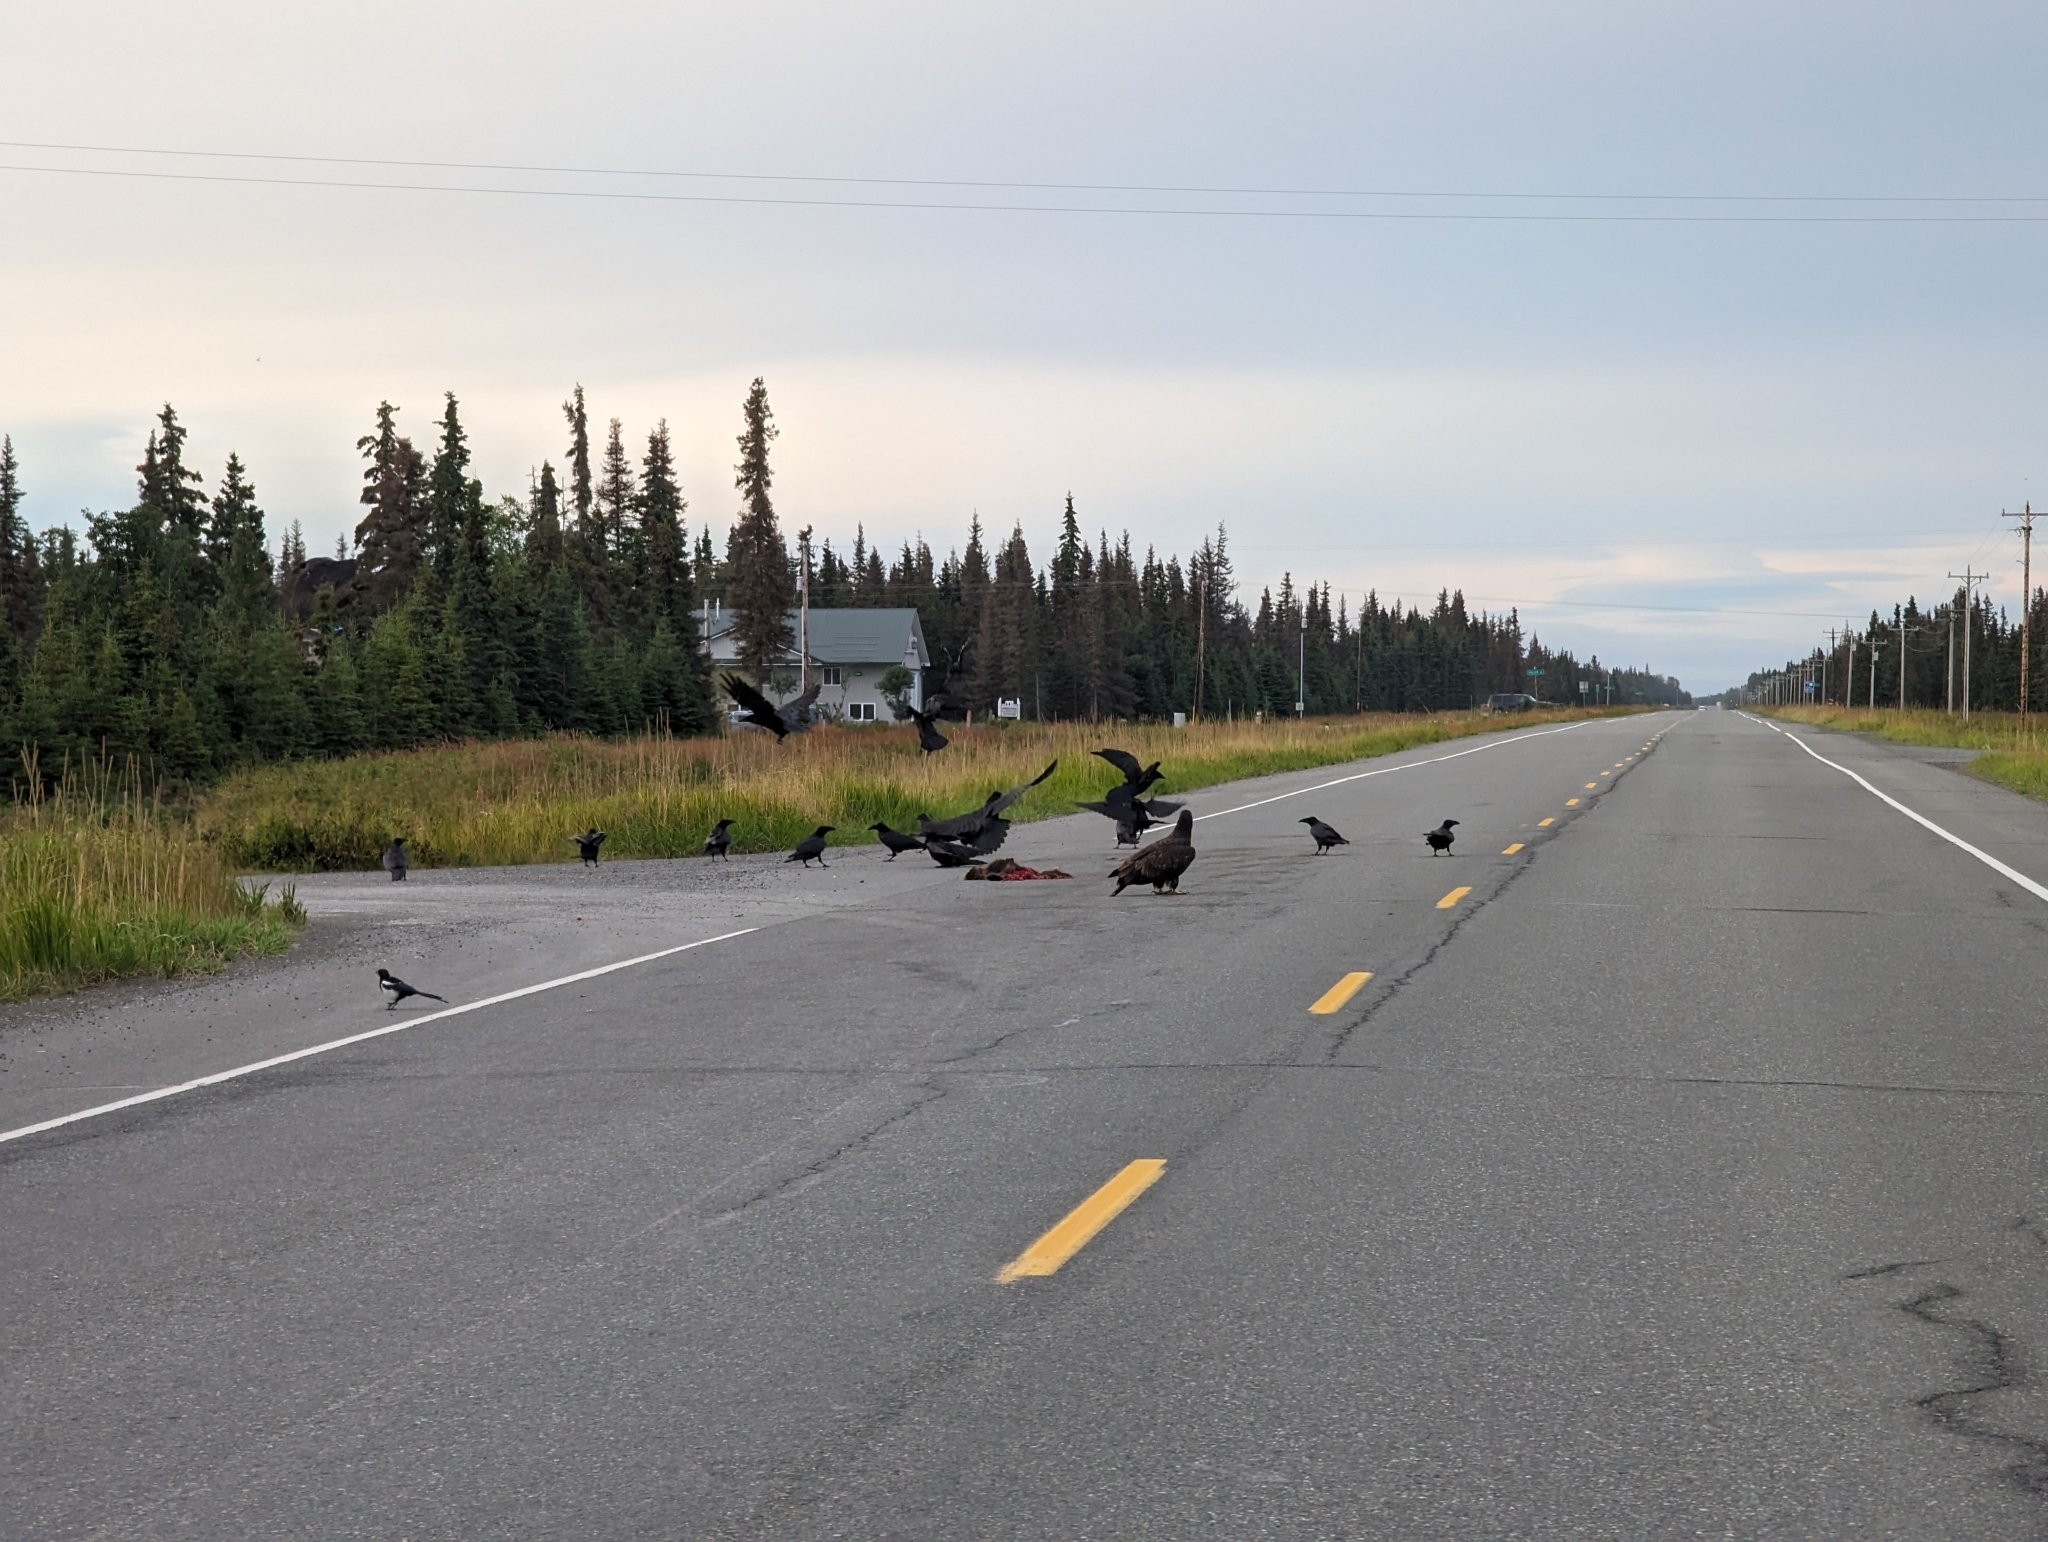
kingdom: Animalia
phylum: Chordata
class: Mammalia
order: Rodentia
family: Erethizontidae
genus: Erethizon
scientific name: Erethizon dorsatus
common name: North american porcupine
